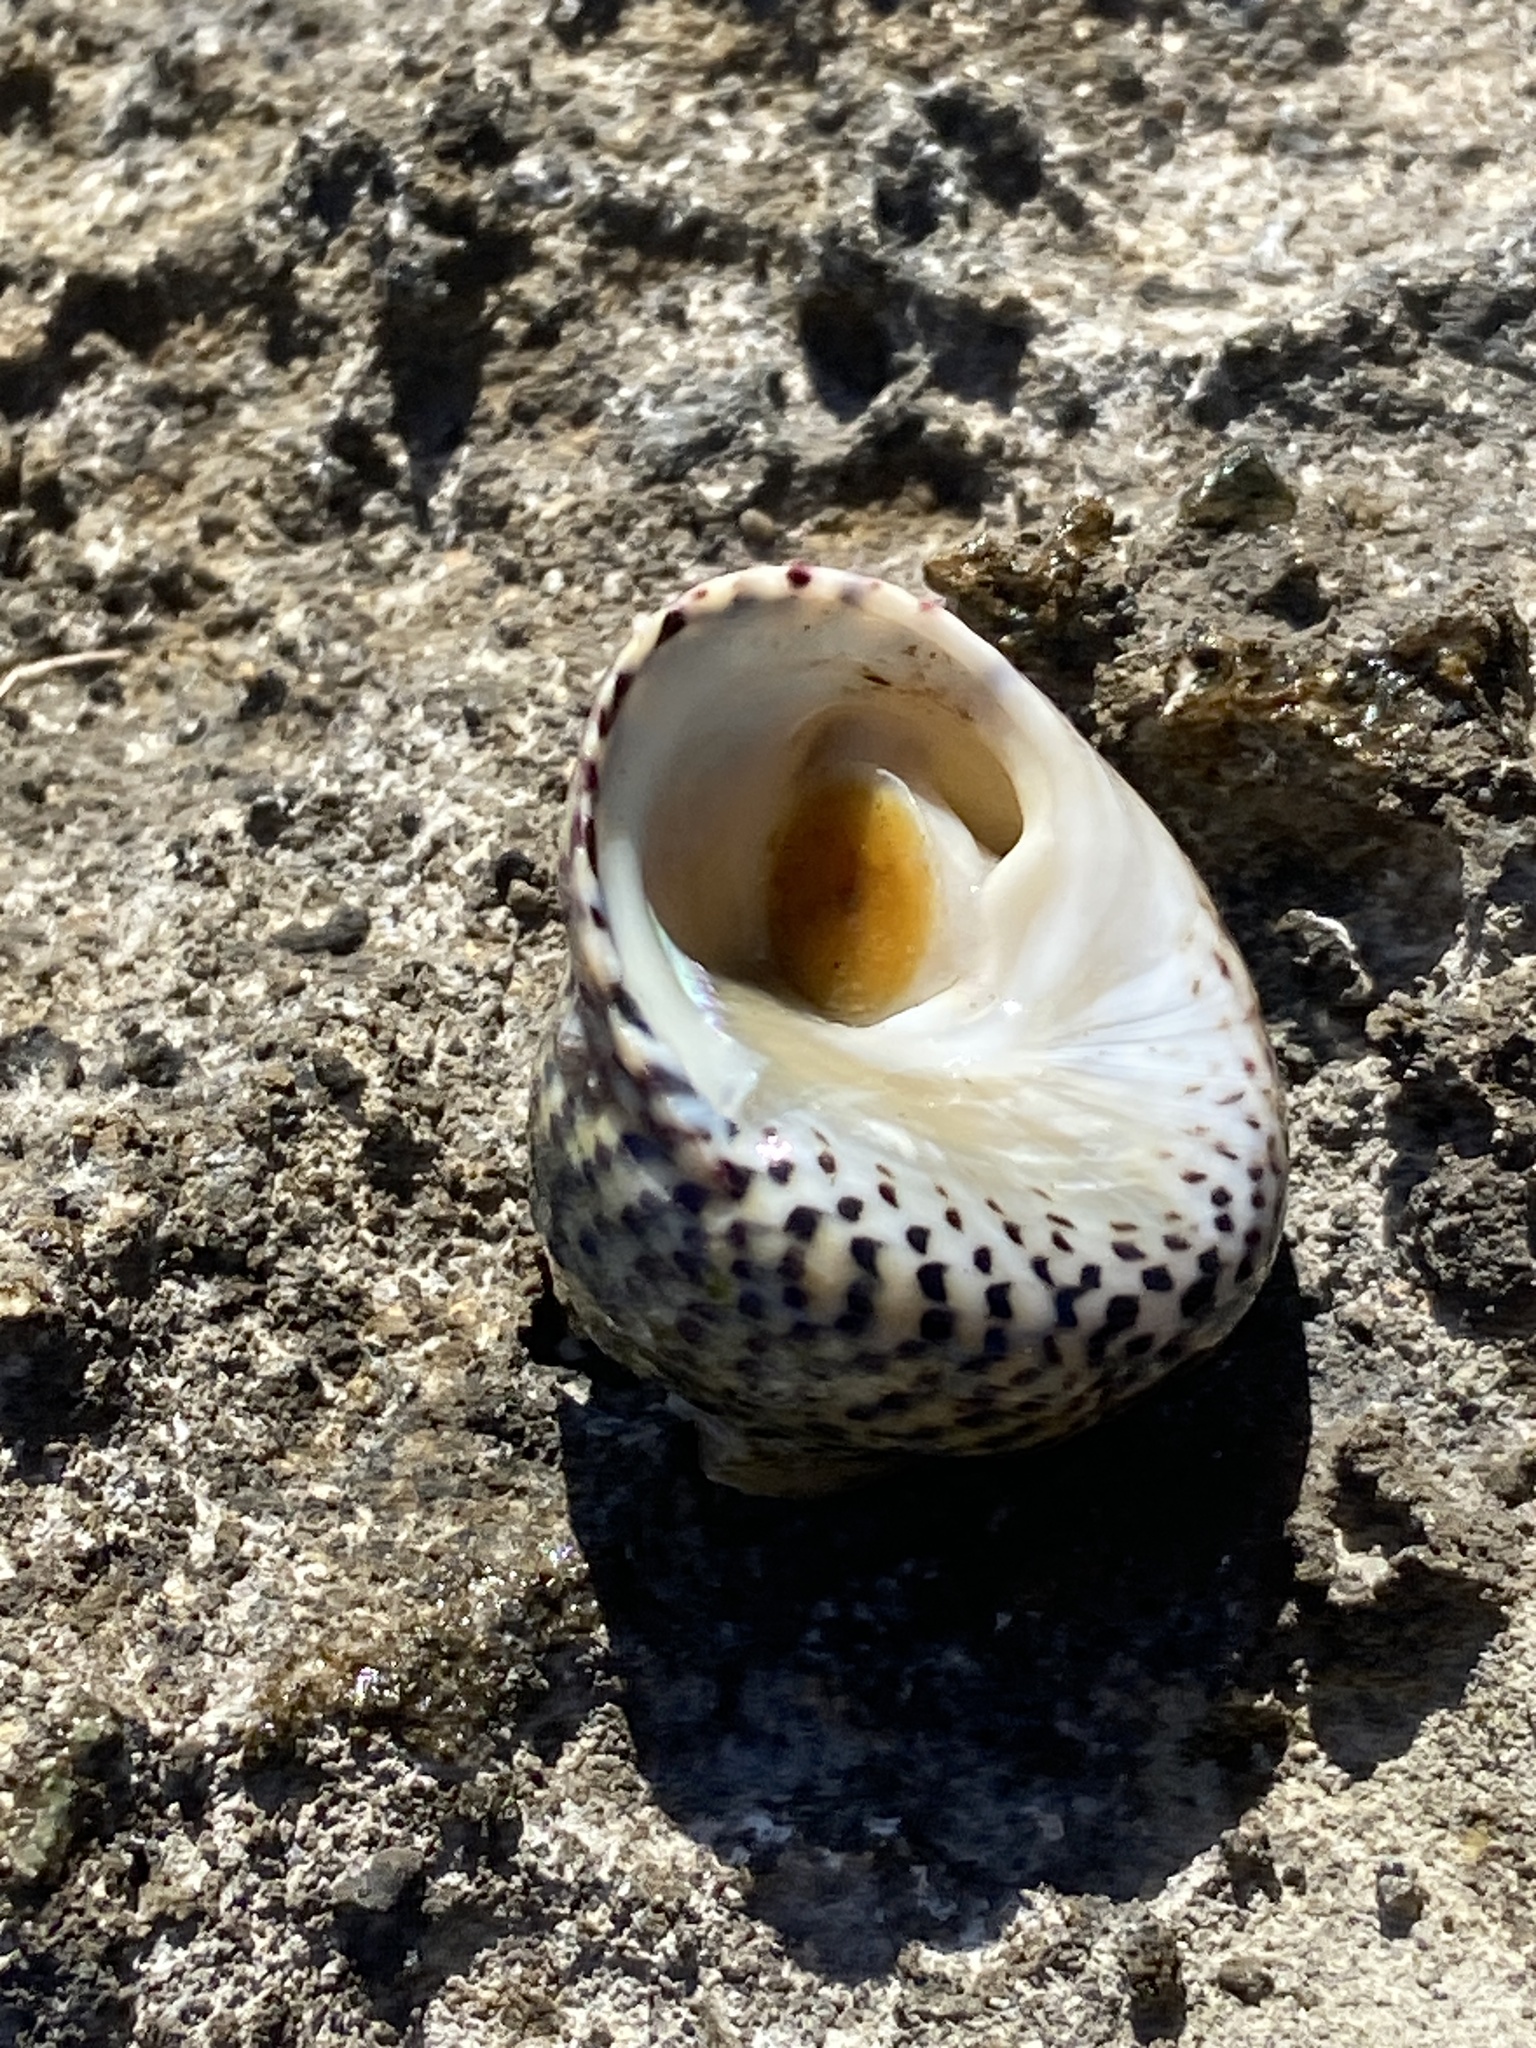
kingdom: Animalia
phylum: Mollusca
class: Gastropoda
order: Trochida
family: Trochidae
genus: Phorcus
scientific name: Phorcus turbinatus
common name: Turbinate monodont
